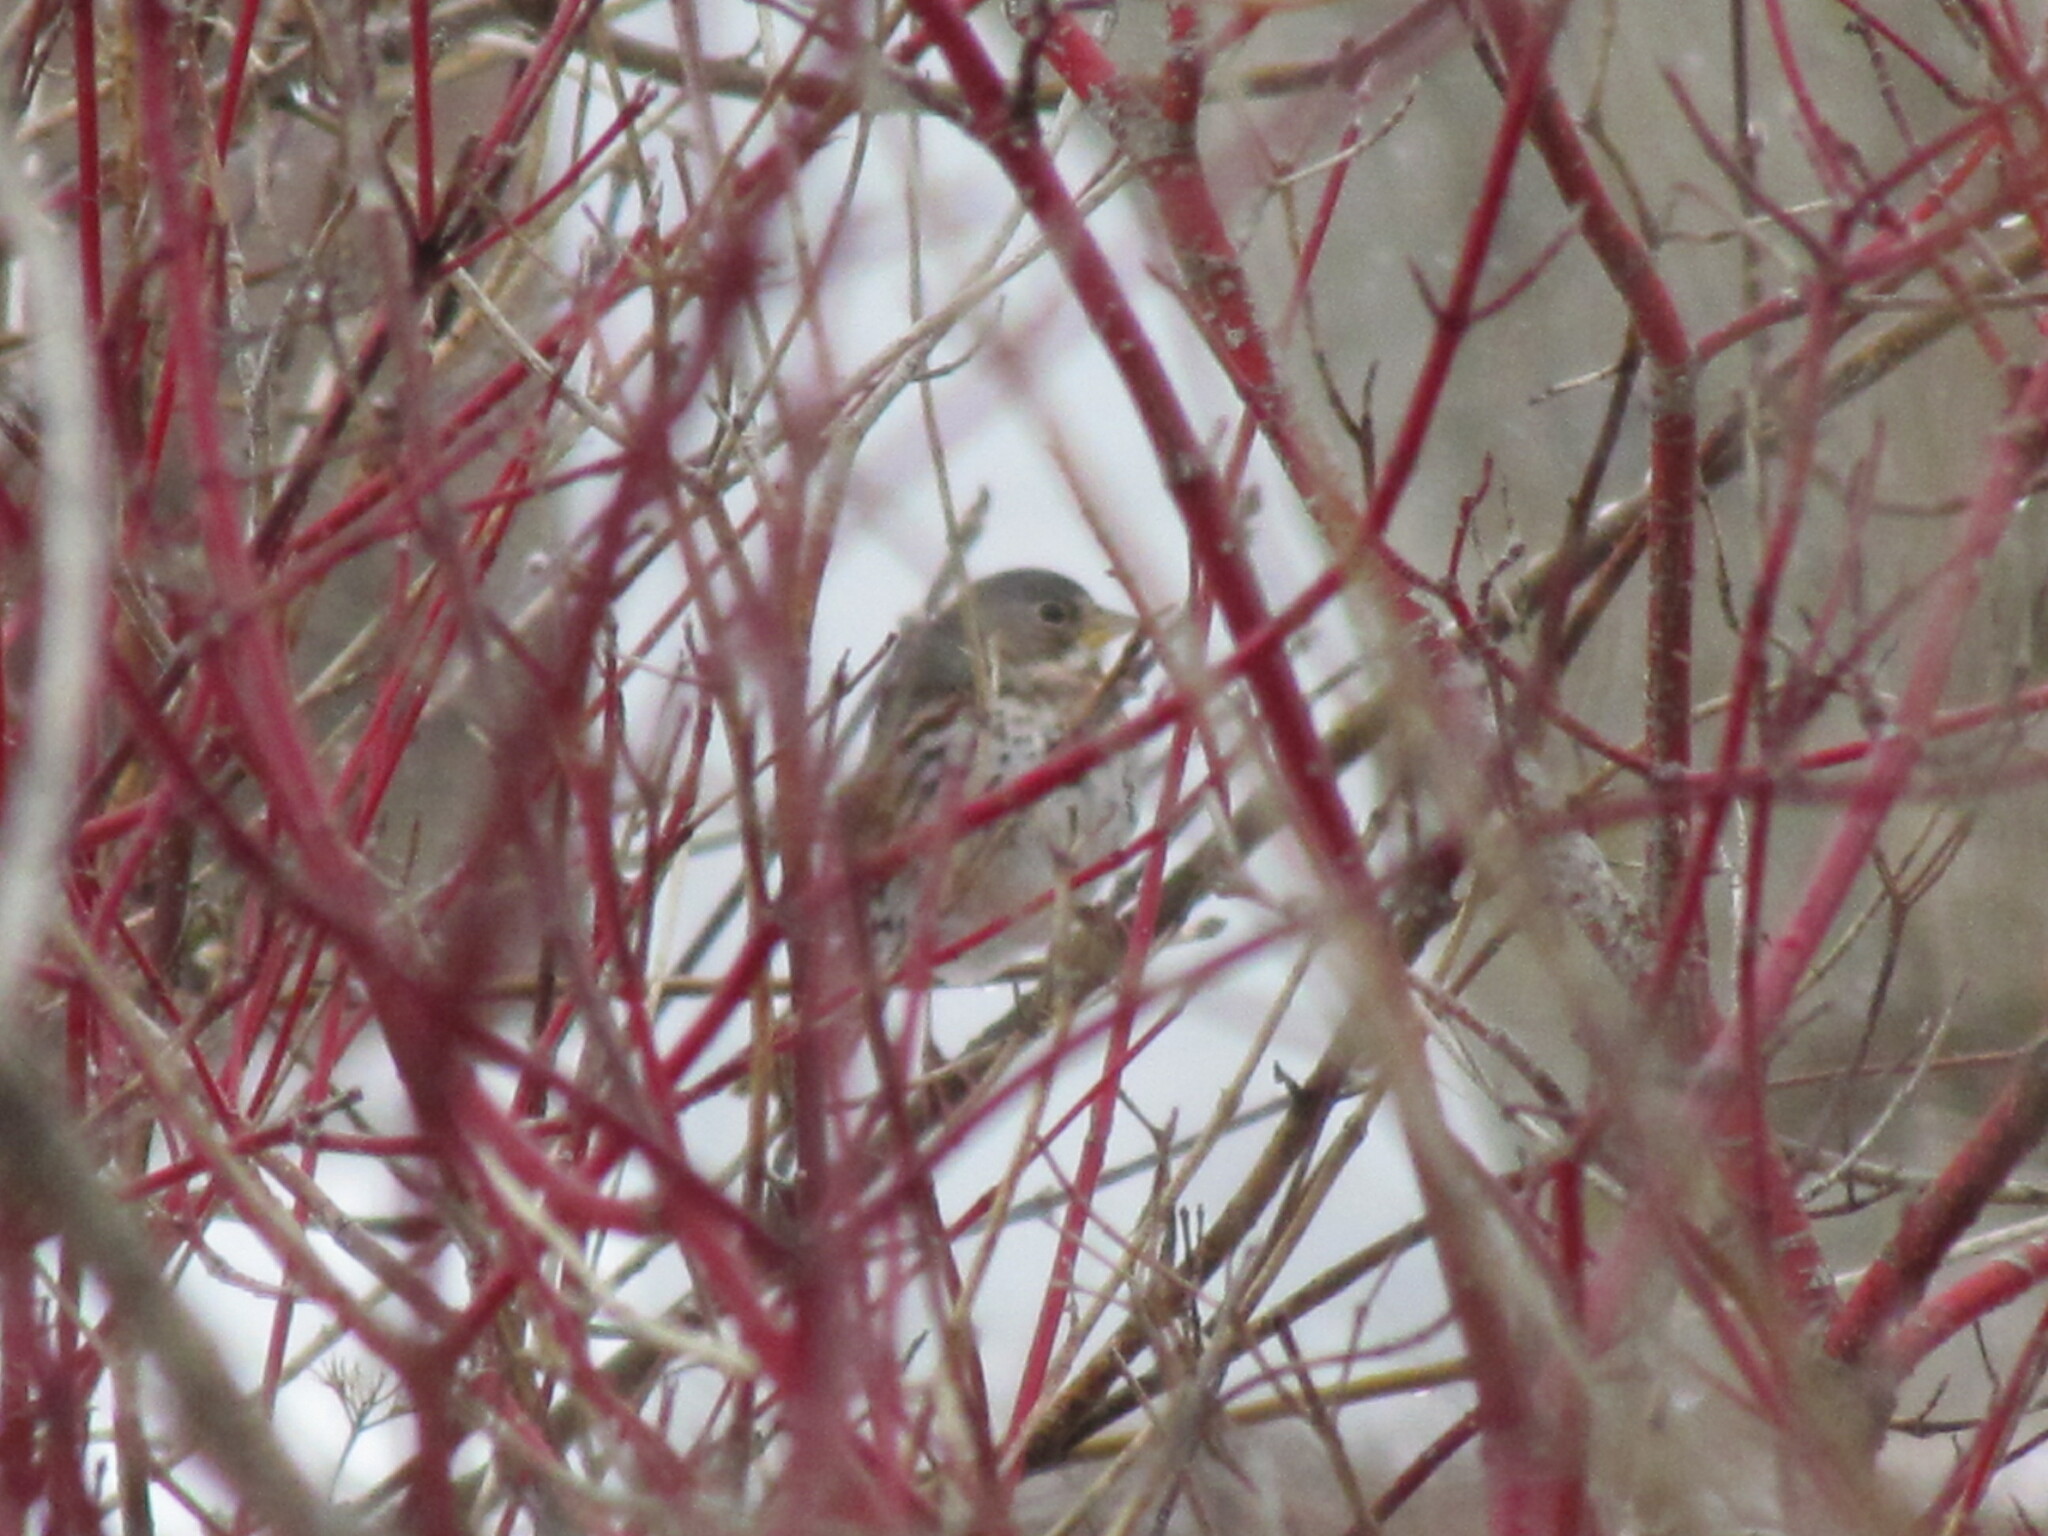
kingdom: Animalia
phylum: Chordata
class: Aves
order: Passeriformes
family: Passerellidae
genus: Passerella
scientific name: Passerella iliaca
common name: Fox sparrow
